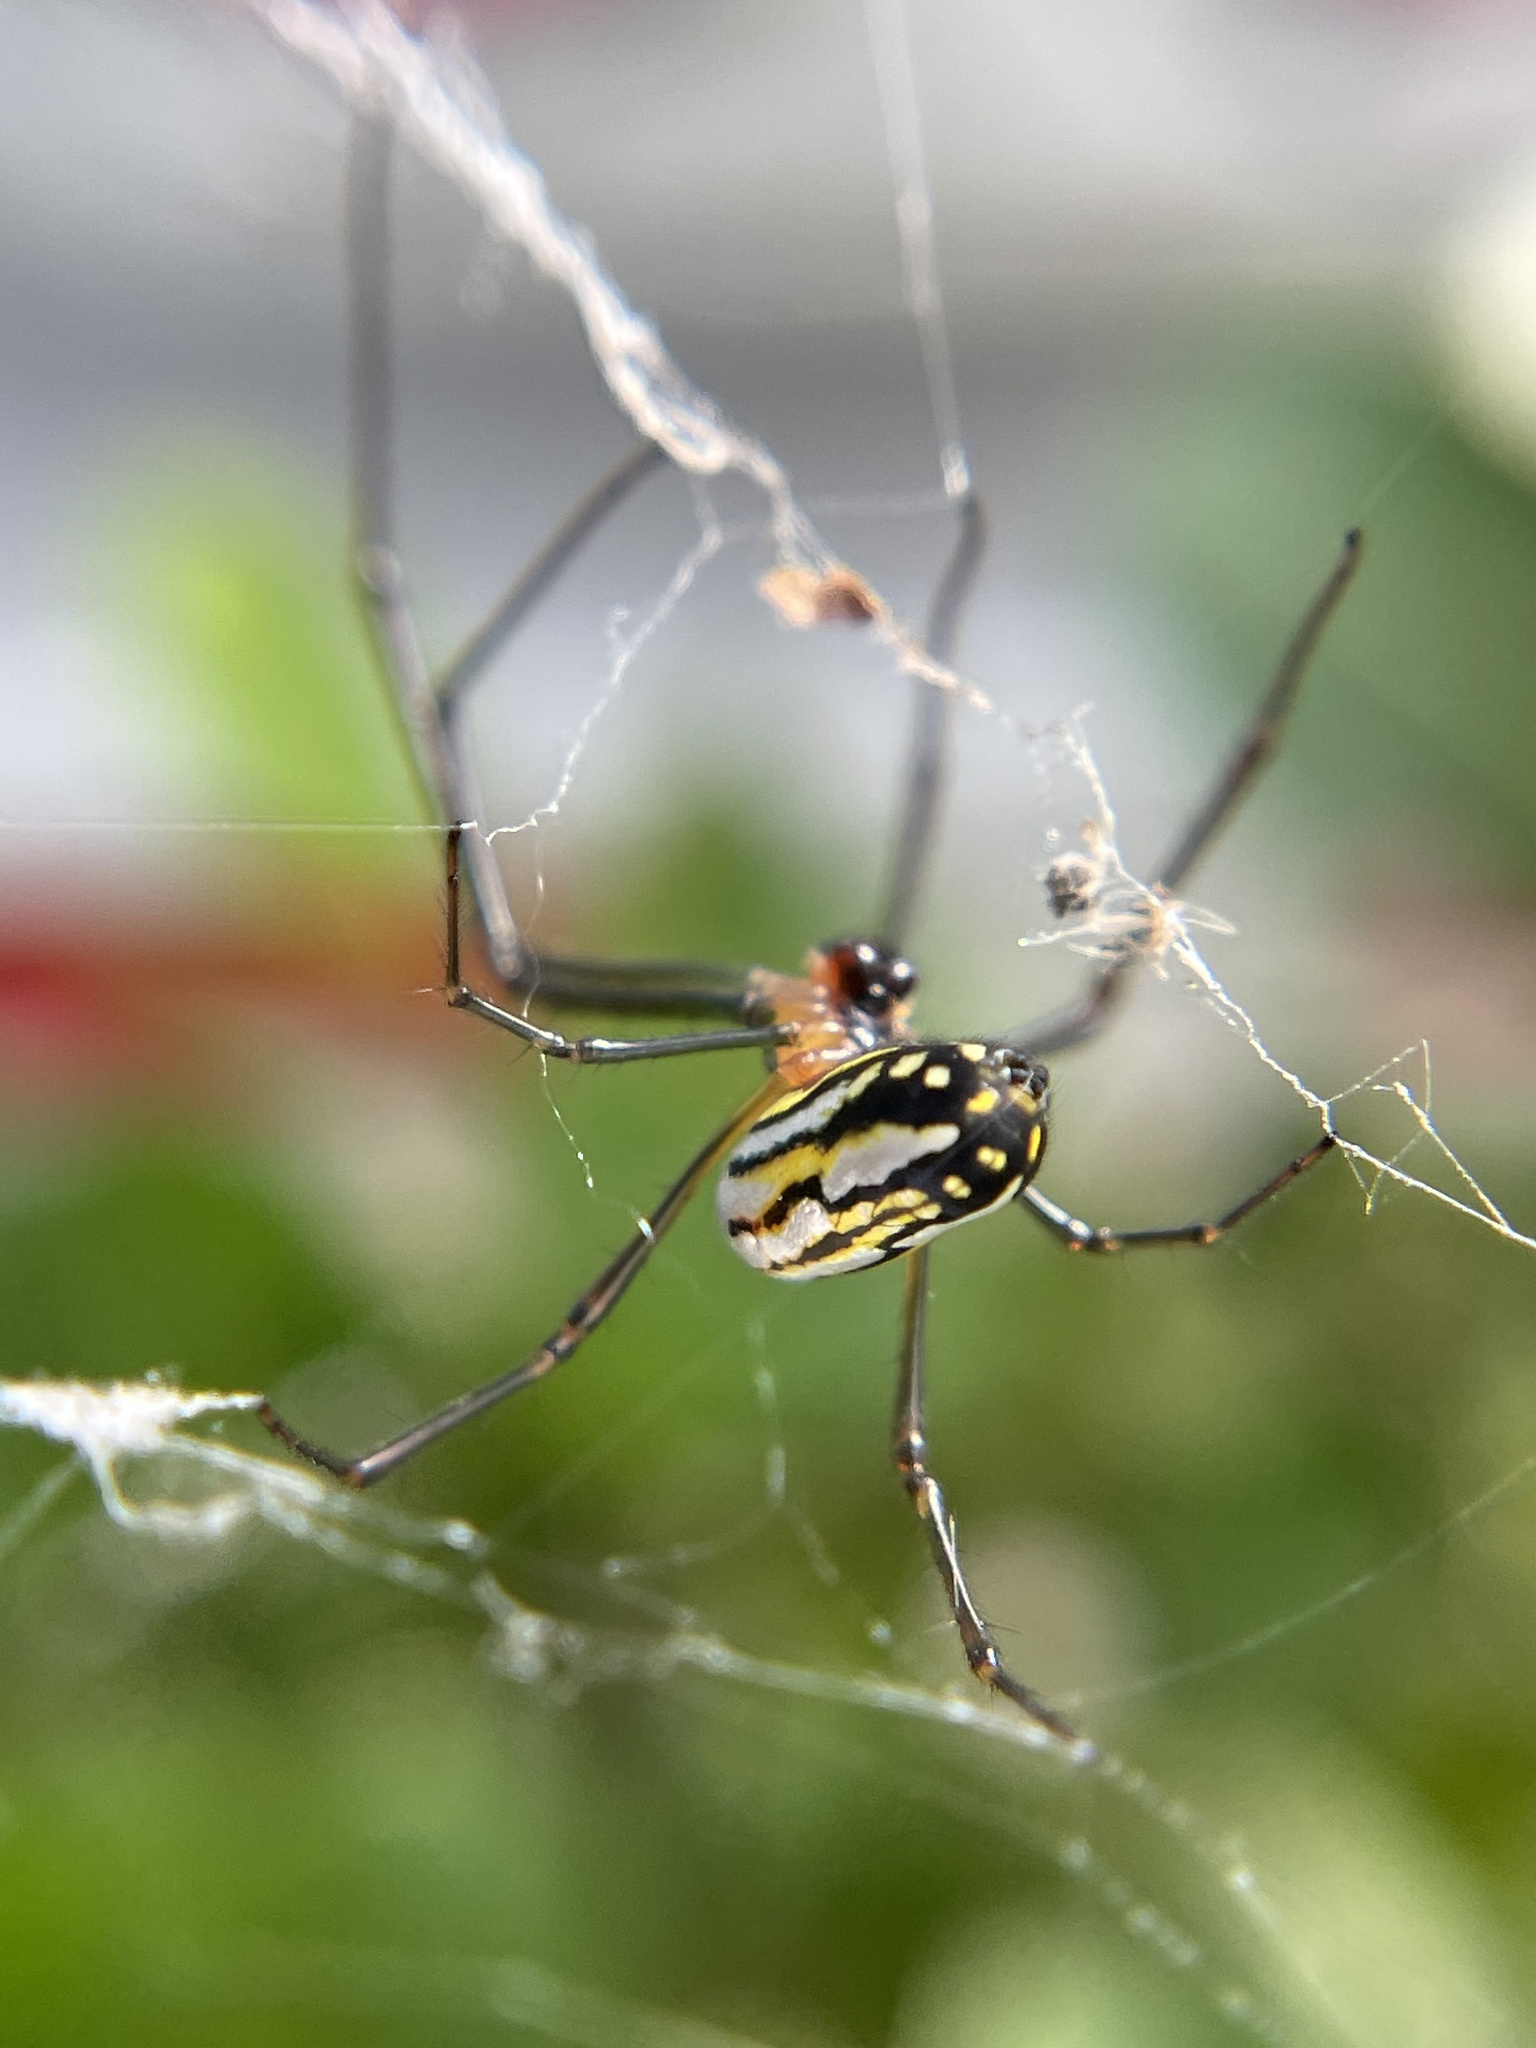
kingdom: Animalia
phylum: Arthropoda
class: Arachnida
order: Araneae
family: Tetragnathidae
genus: Leucauge
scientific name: Leucauge argyra
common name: Longjawed orb weavers
